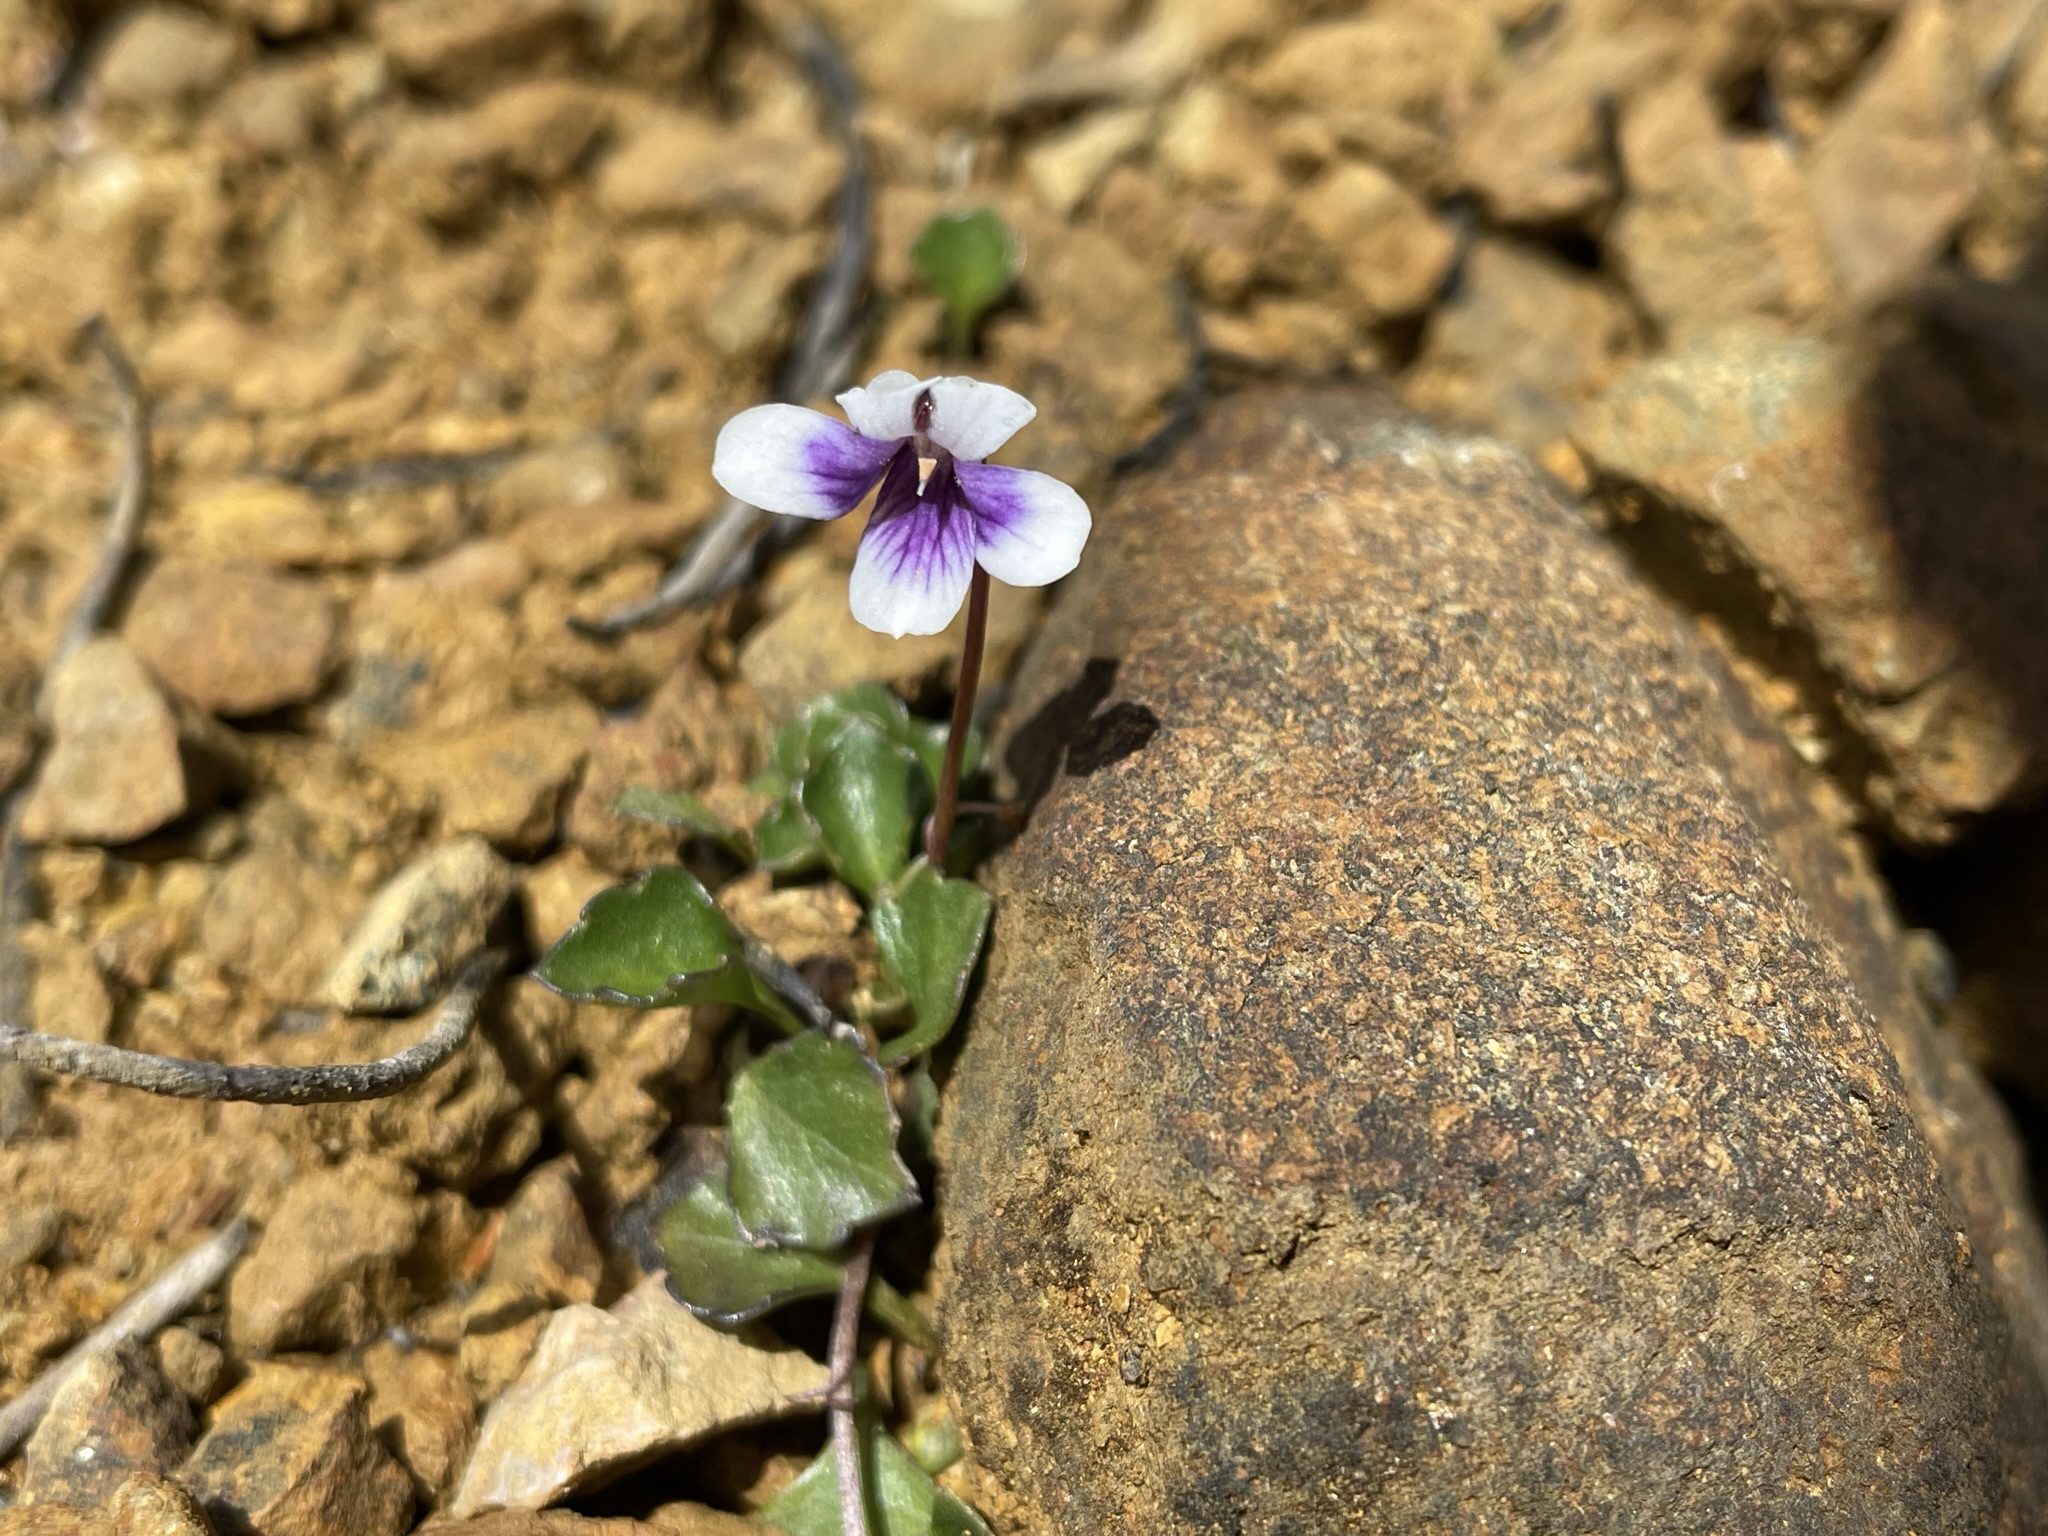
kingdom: Plantae
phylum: Tracheophyta
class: Magnoliopsida
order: Malpighiales
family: Violaceae
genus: Viola
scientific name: Viola serpentinicola
